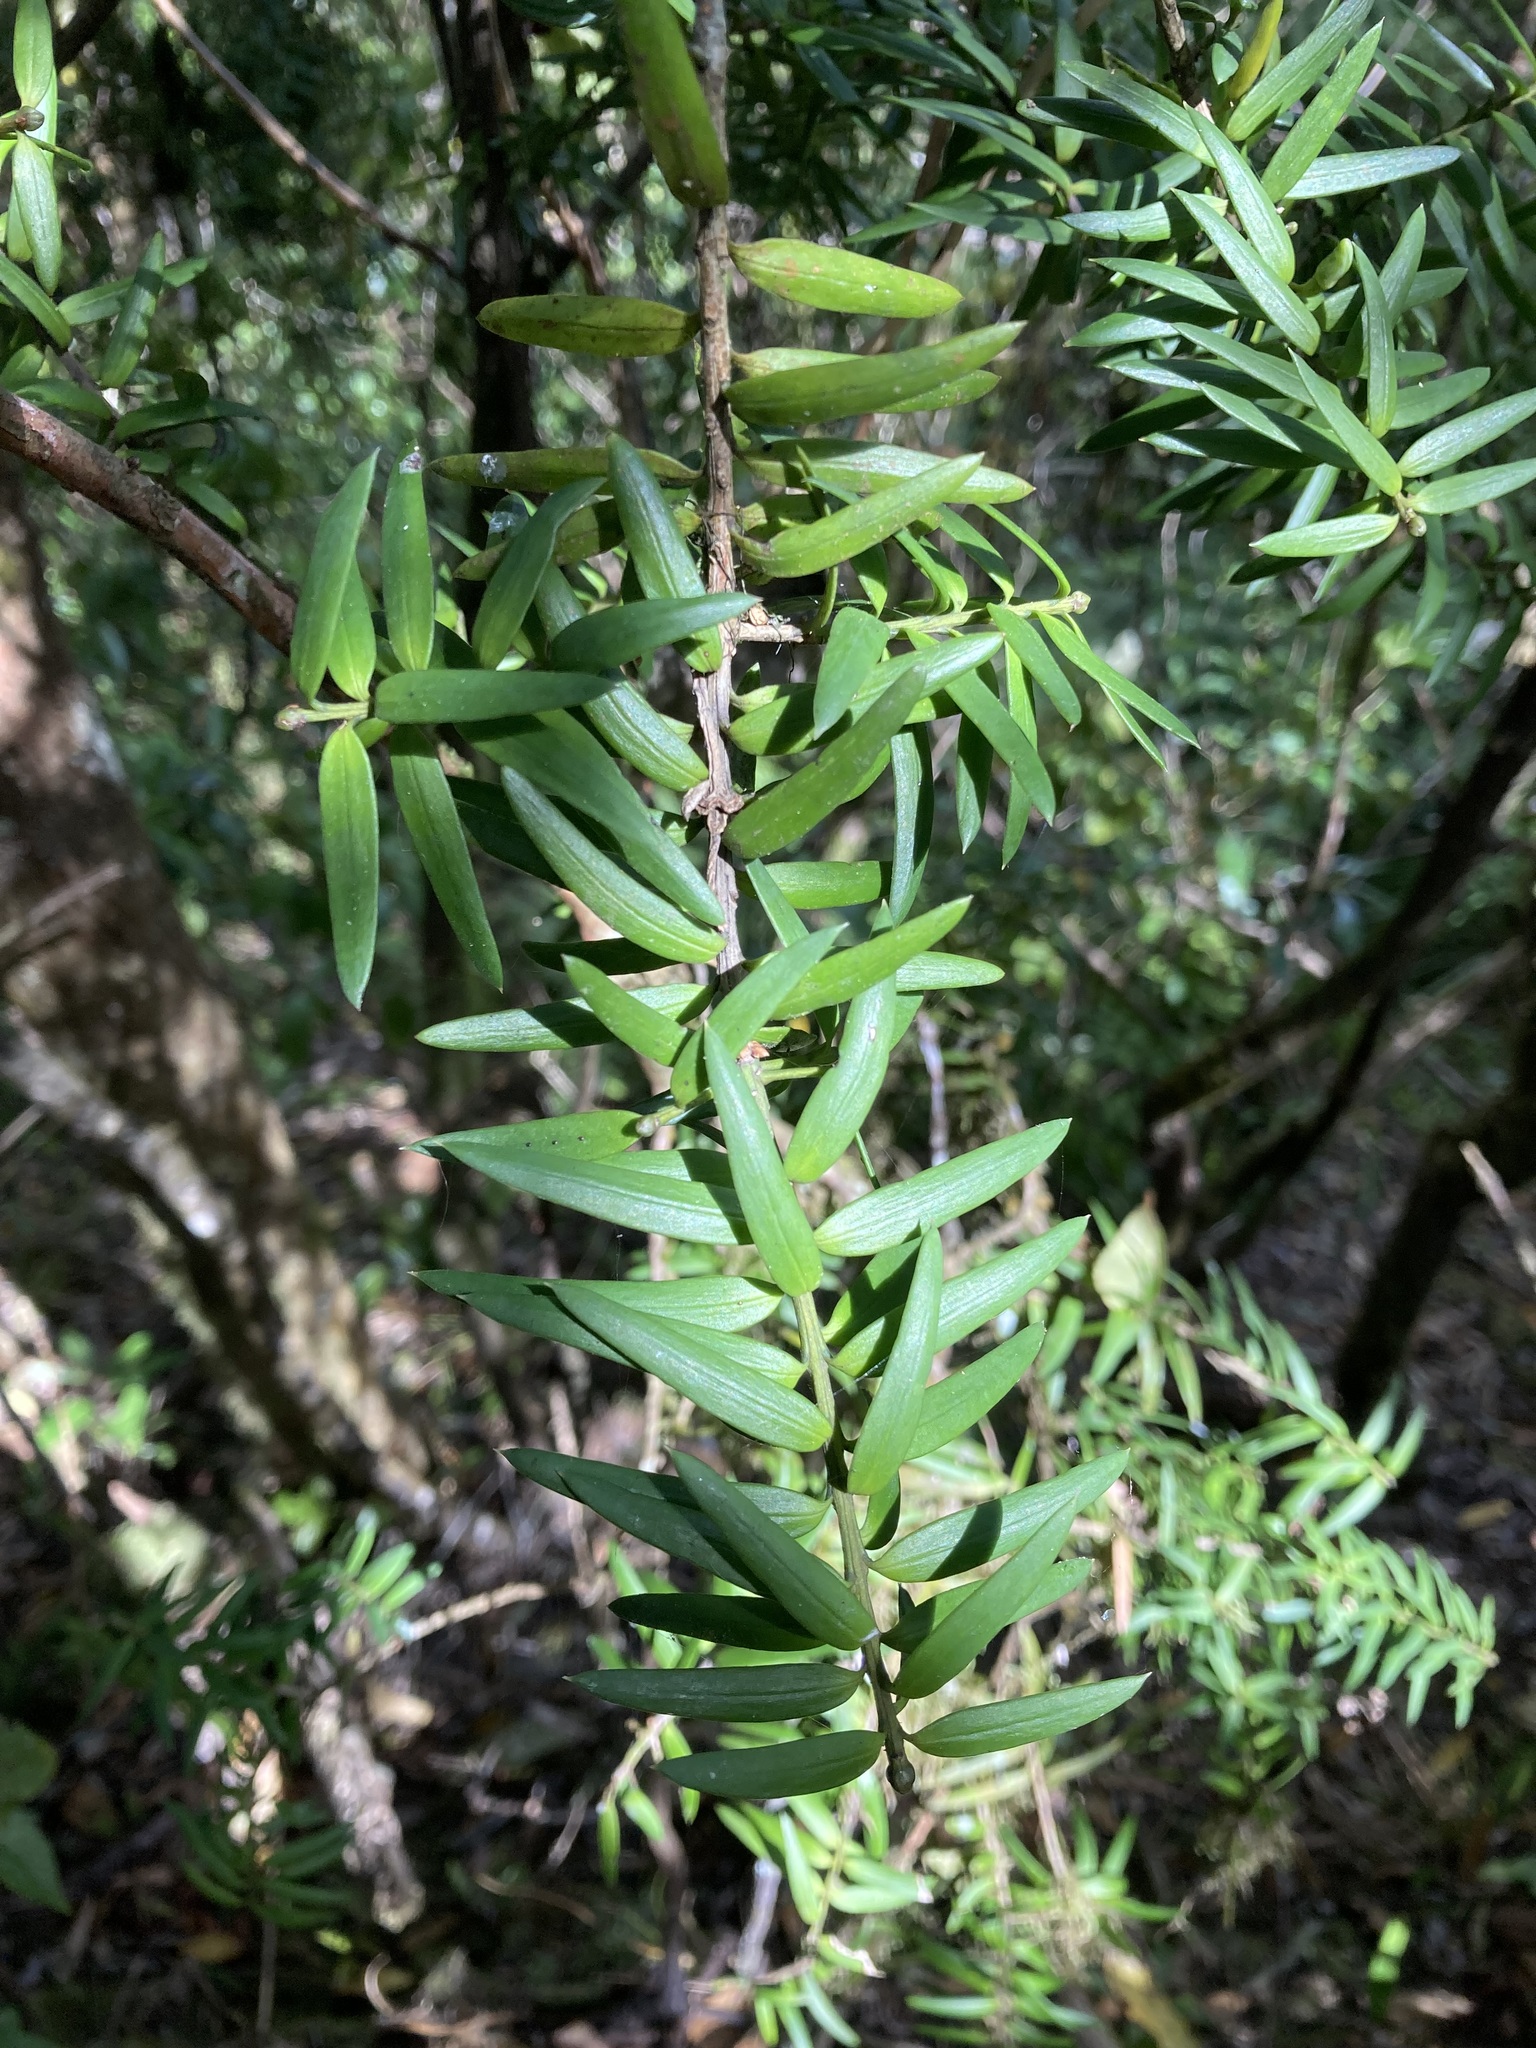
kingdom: Plantae
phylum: Tracheophyta
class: Pinopsida
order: Pinales
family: Podocarpaceae
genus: Podocarpus
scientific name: Podocarpus laetus
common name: Hall's totara
